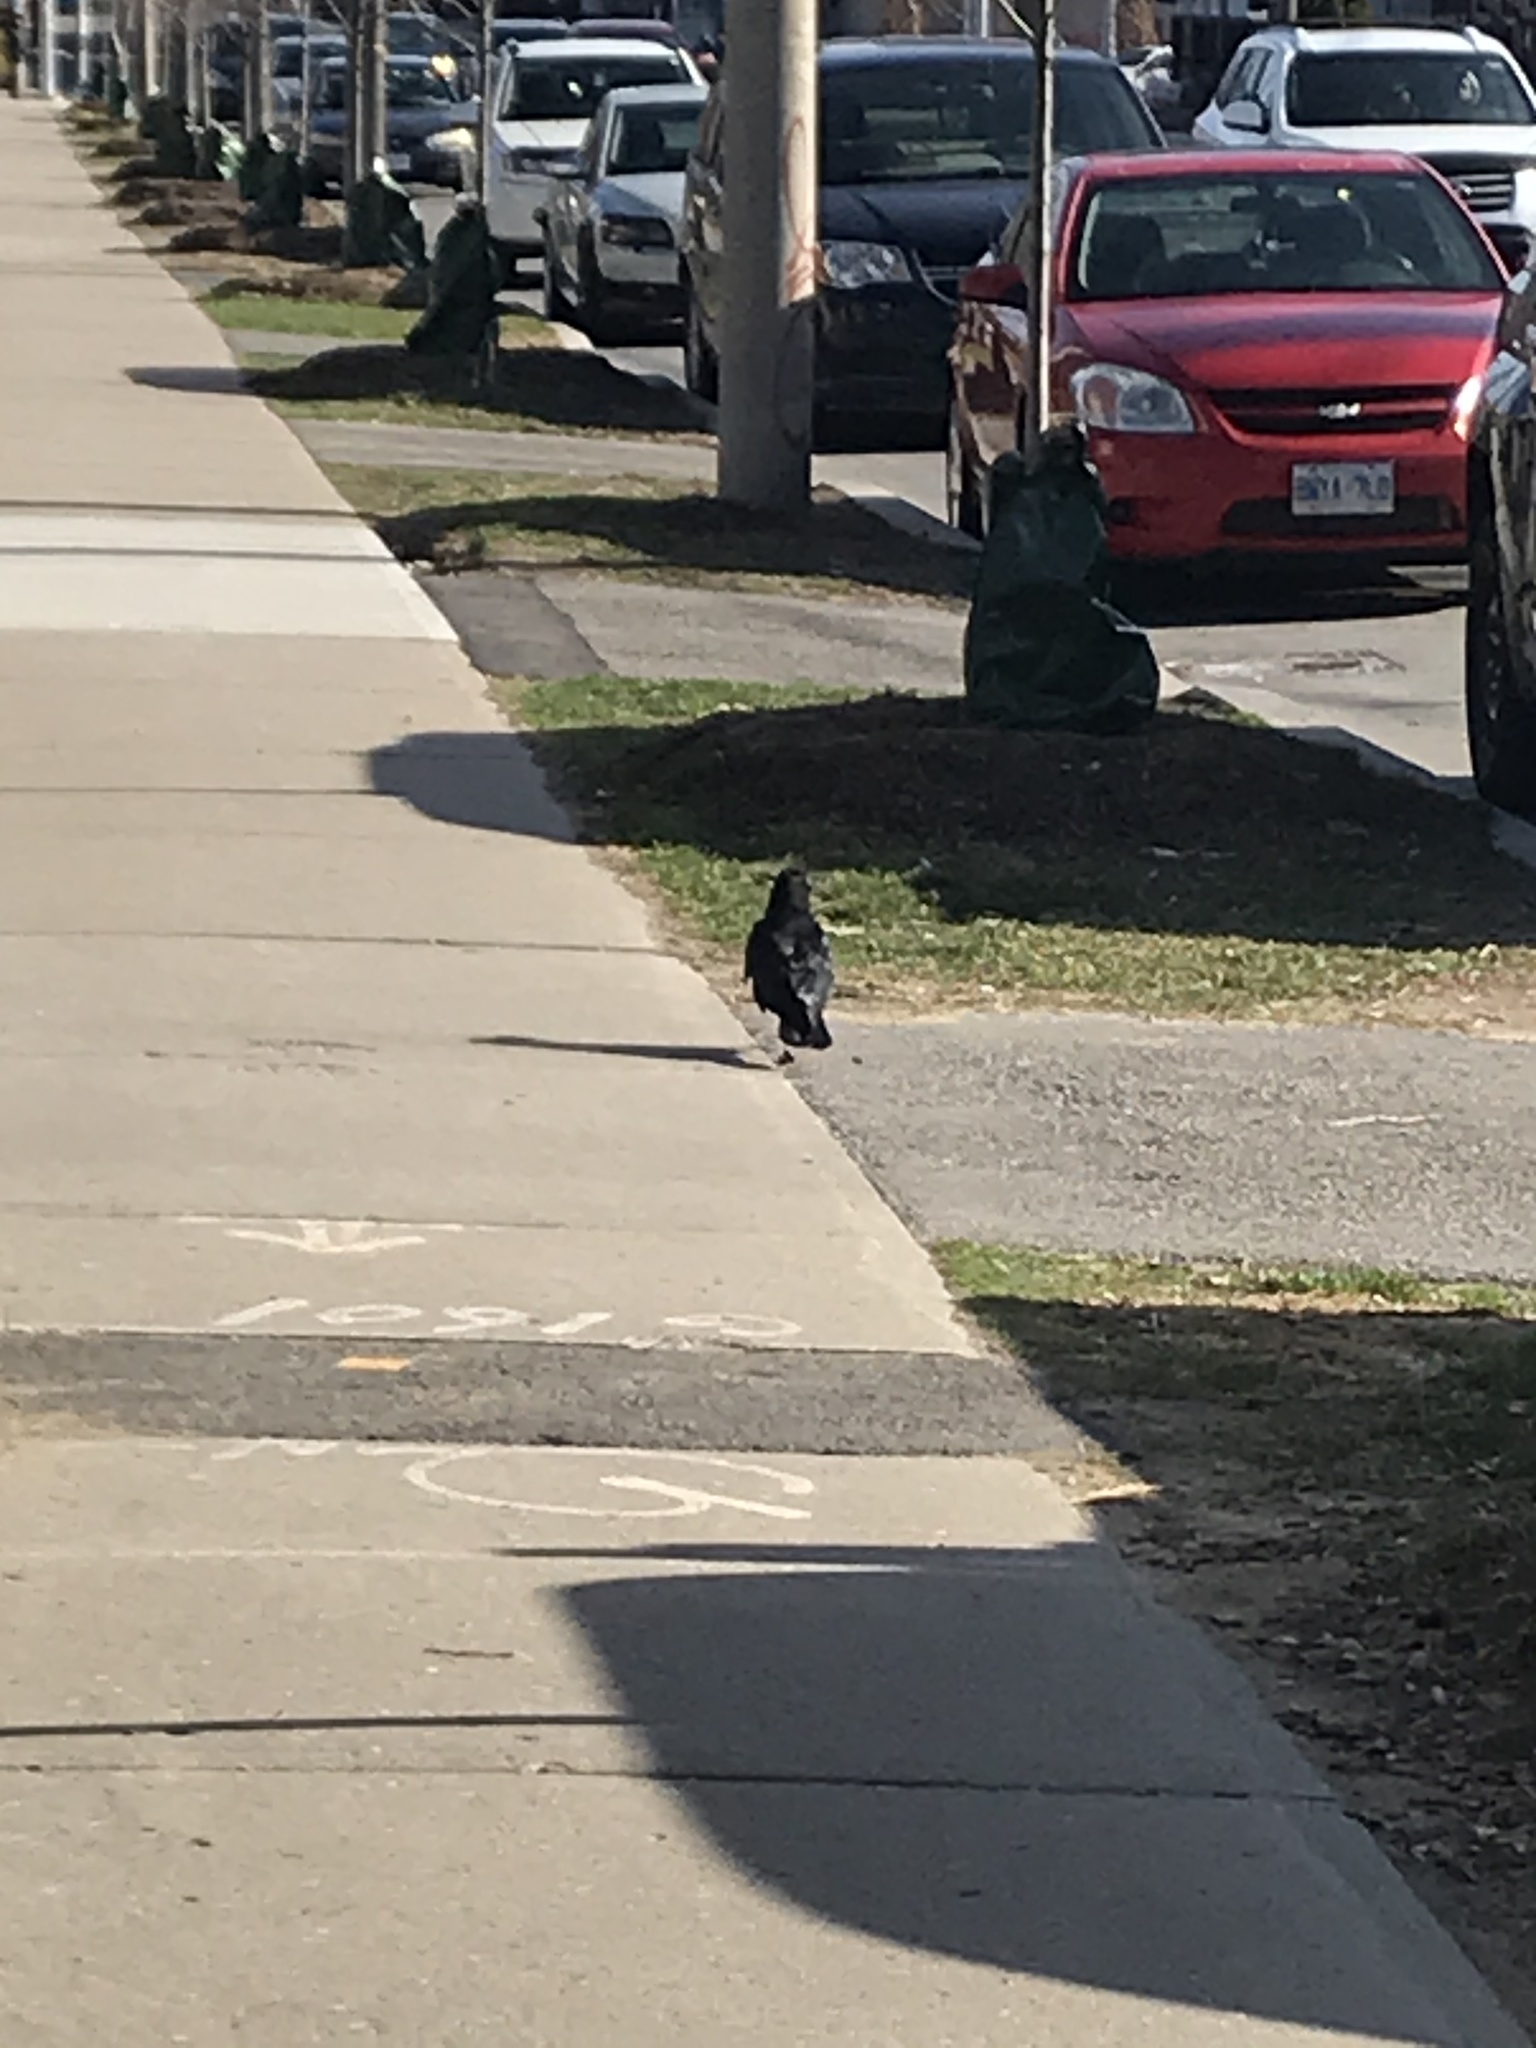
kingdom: Animalia
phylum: Chordata
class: Aves
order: Passeriformes
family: Corvidae
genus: Corvus
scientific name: Corvus brachyrhynchos
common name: American crow
